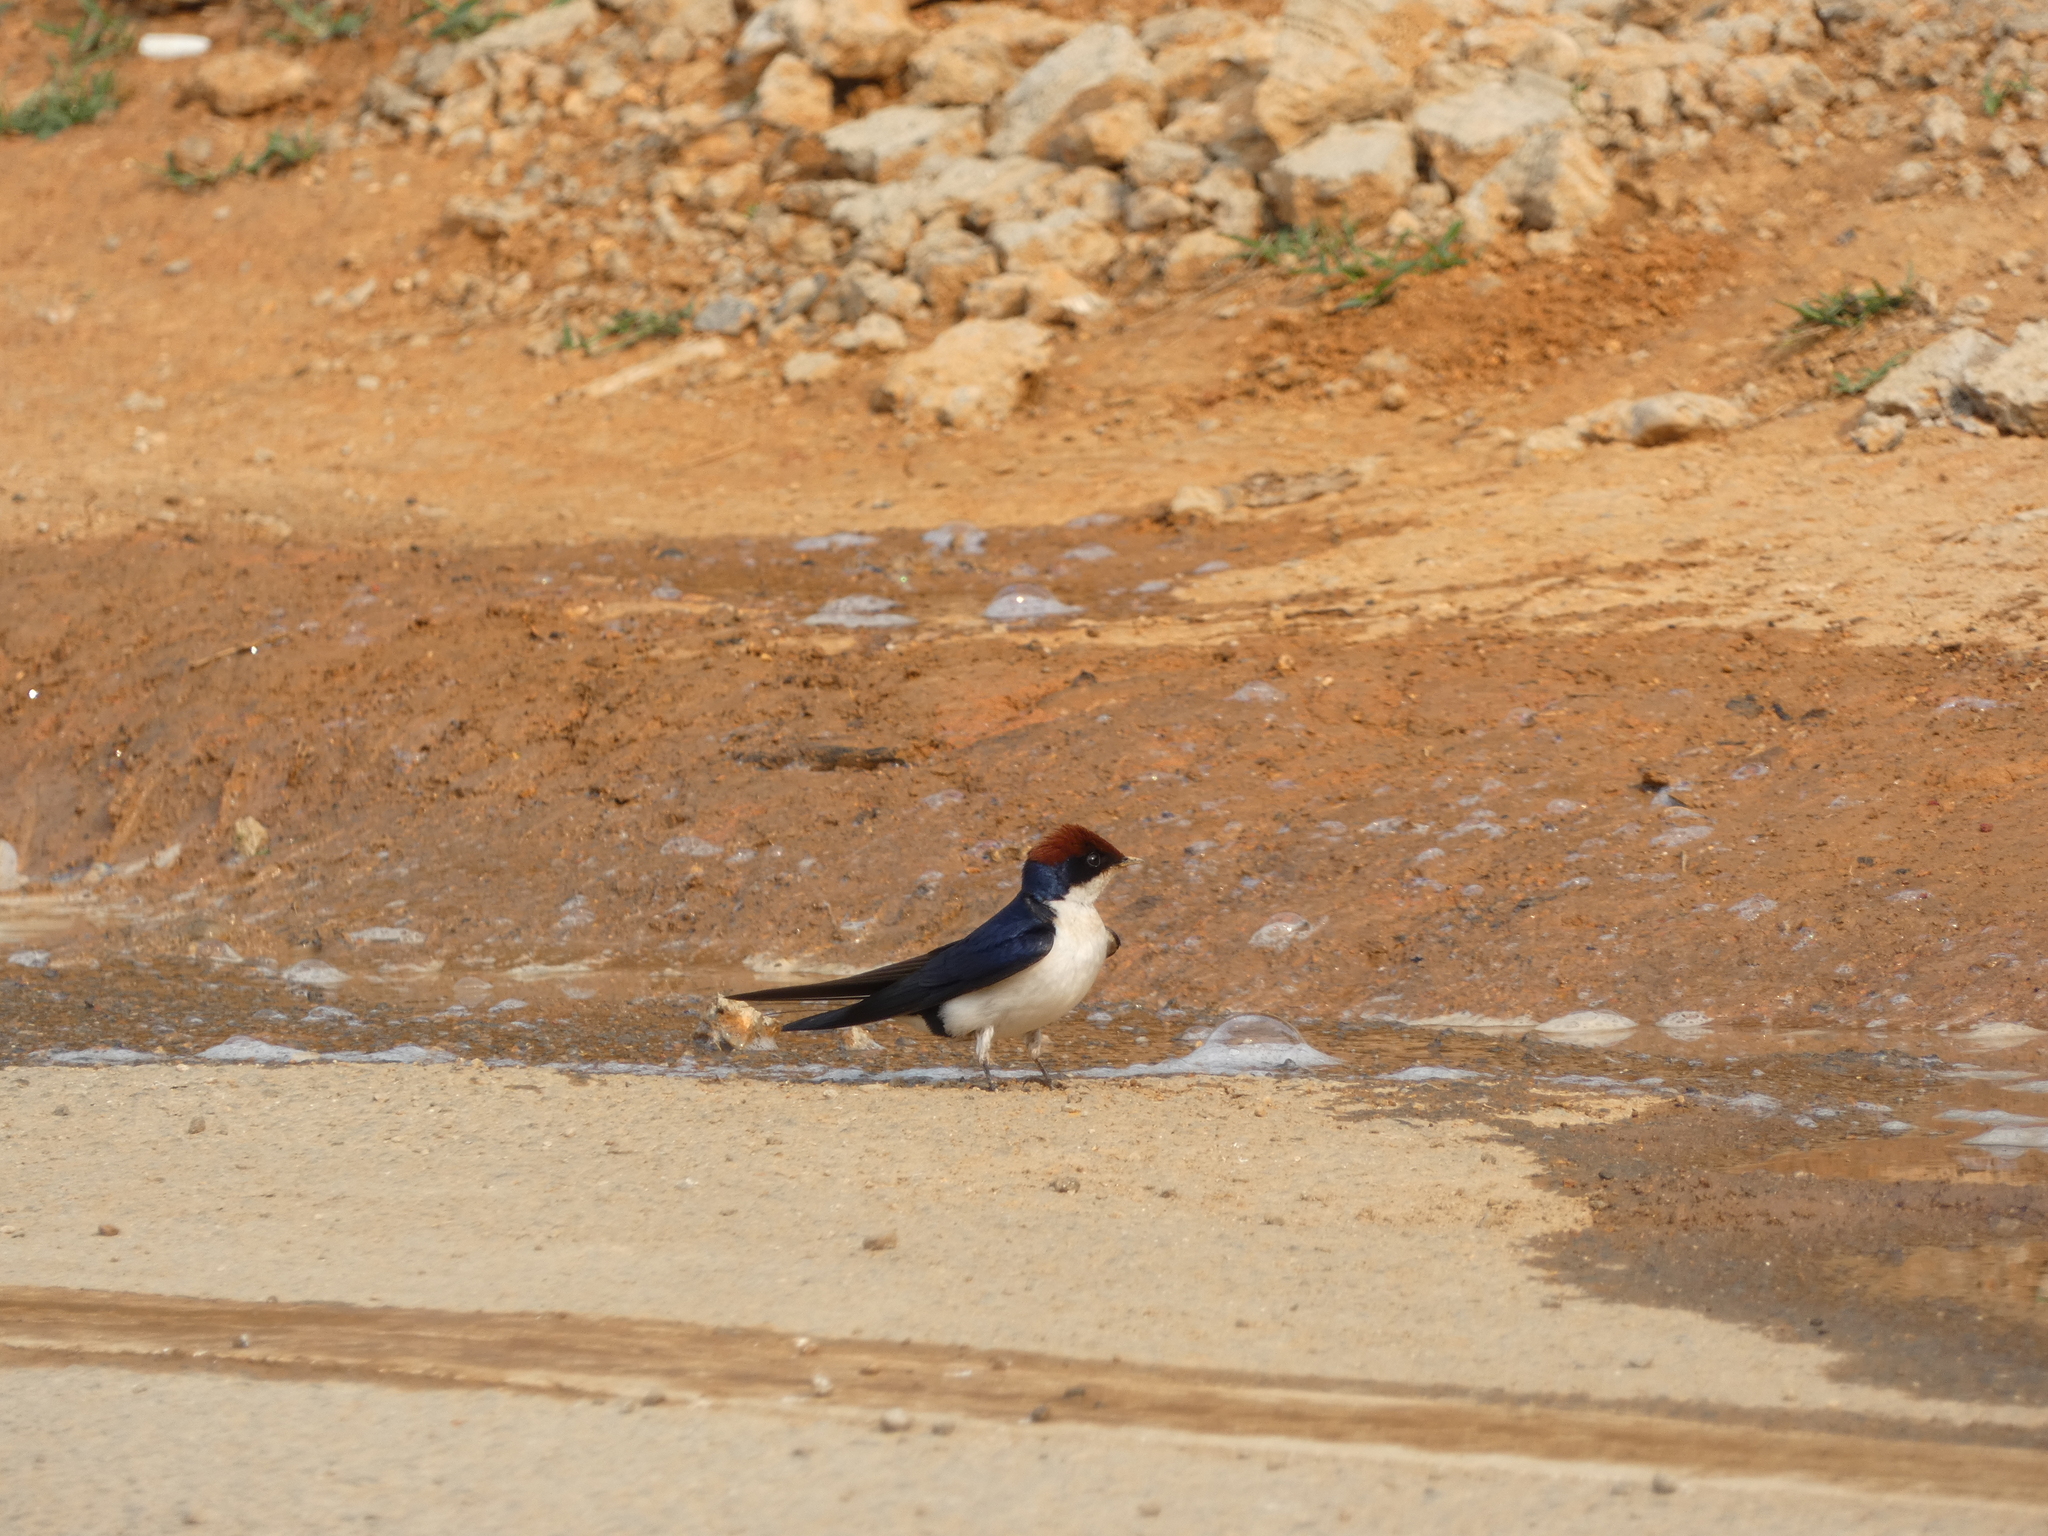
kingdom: Animalia
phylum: Chordata
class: Aves
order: Passeriformes
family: Hirundinidae
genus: Hirundo
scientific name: Hirundo smithii
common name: Wire-tailed swallow
